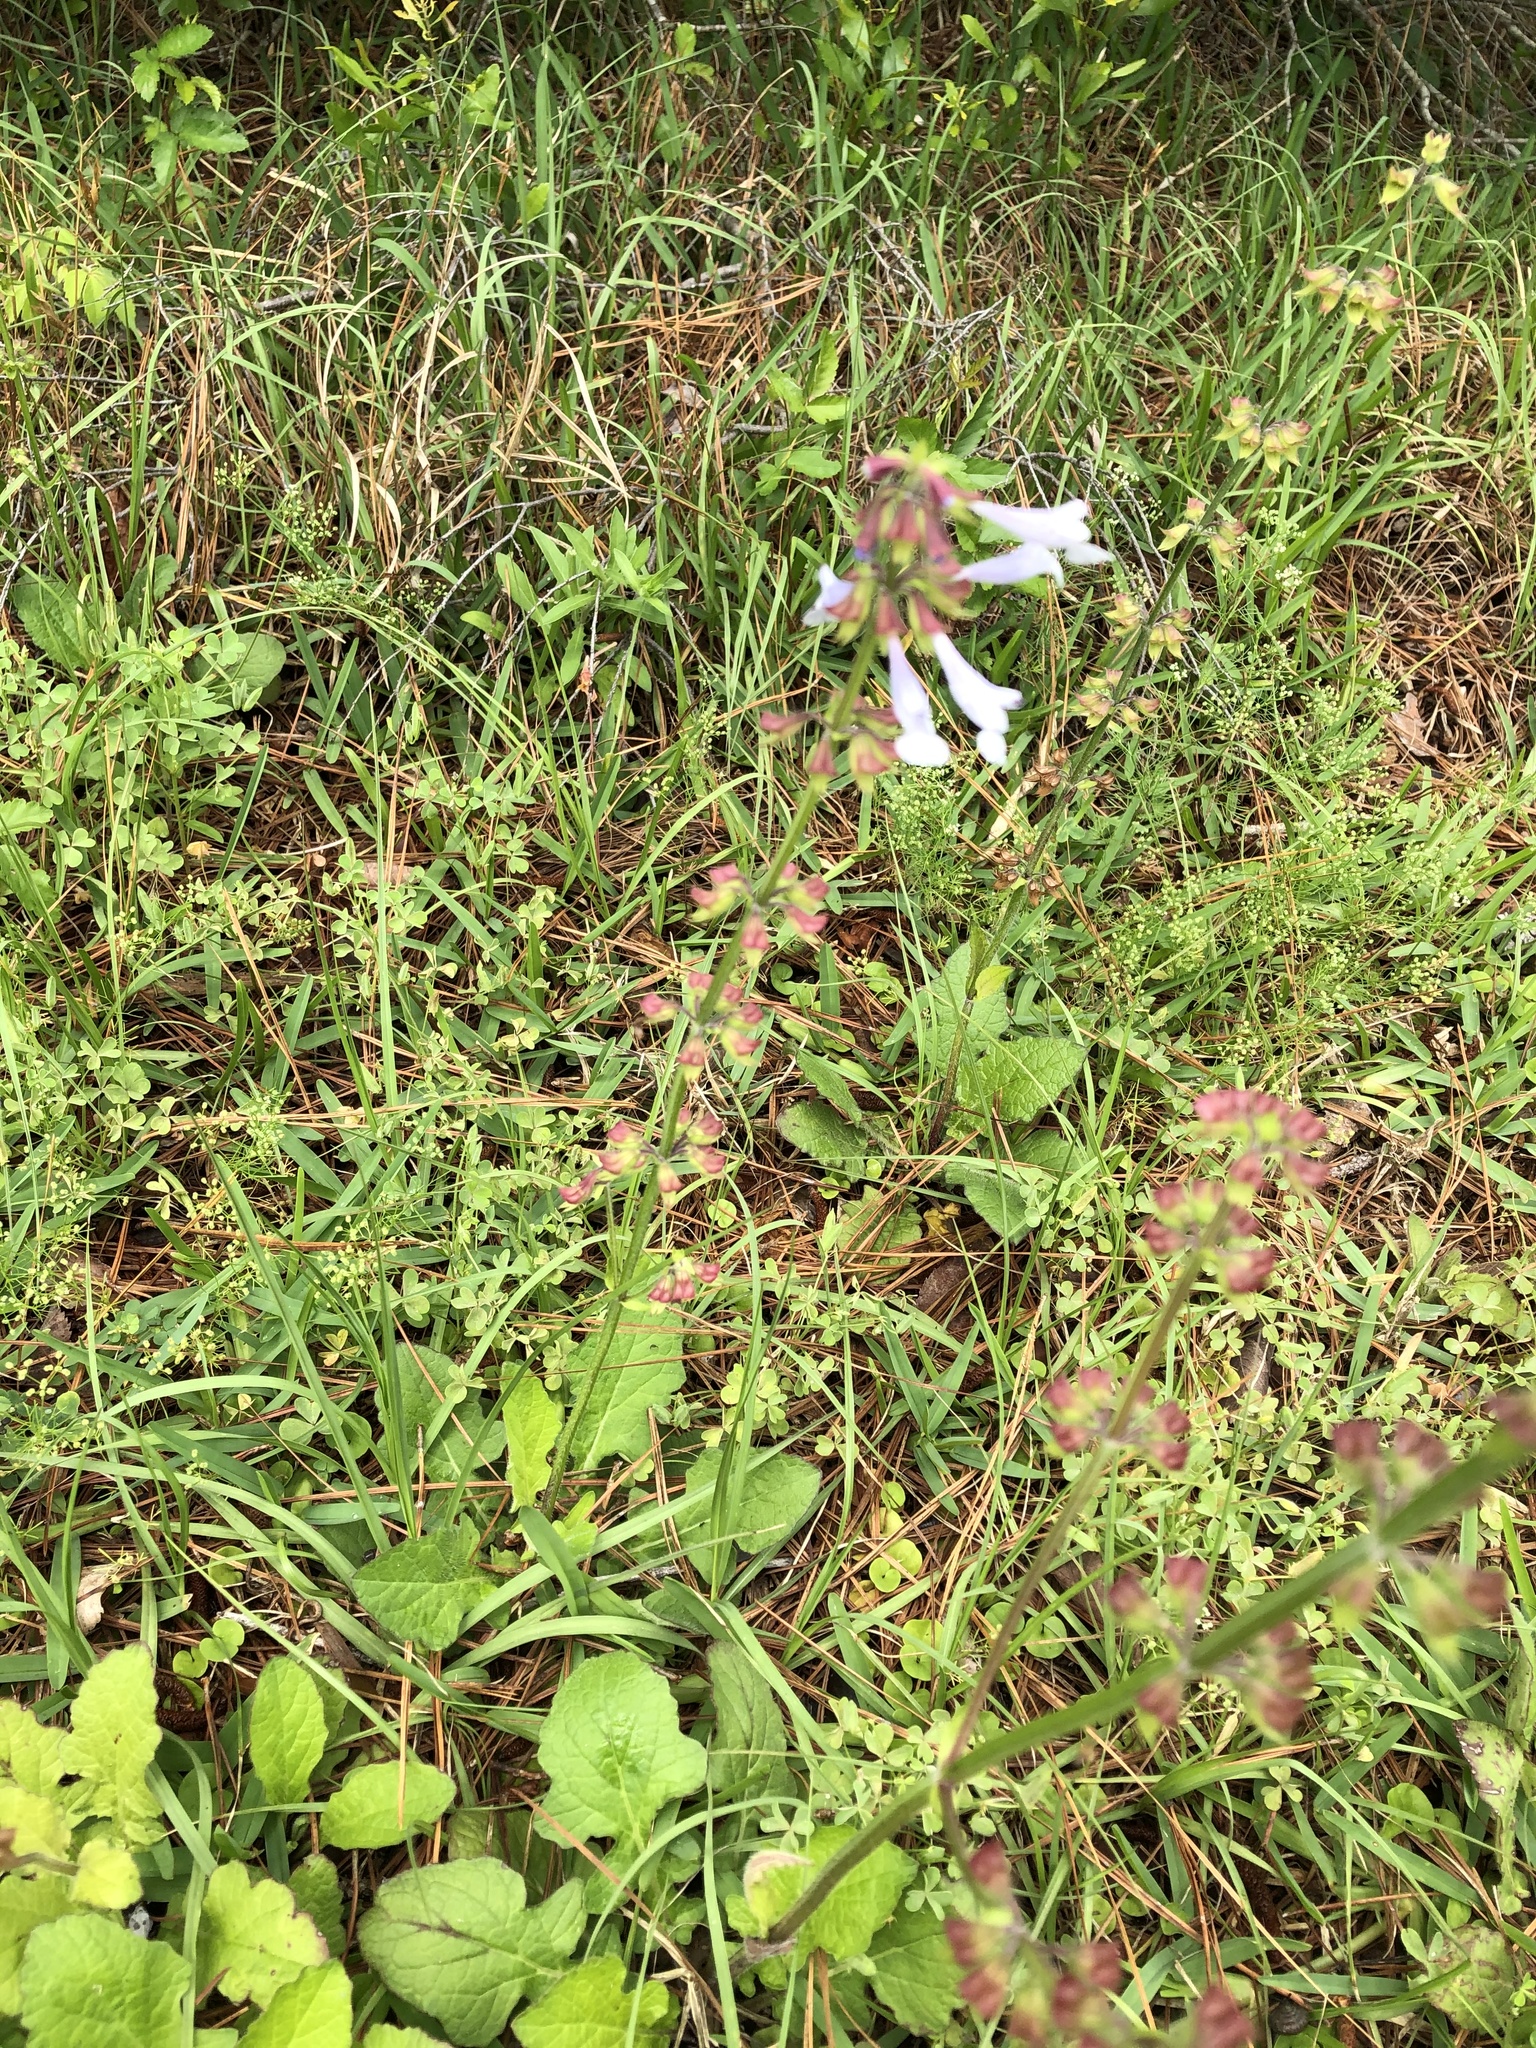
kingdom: Plantae
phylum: Tracheophyta
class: Magnoliopsida
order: Lamiales
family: Lamiaceae
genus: Salvia
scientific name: Salvia lyrata
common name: Cancerweed
